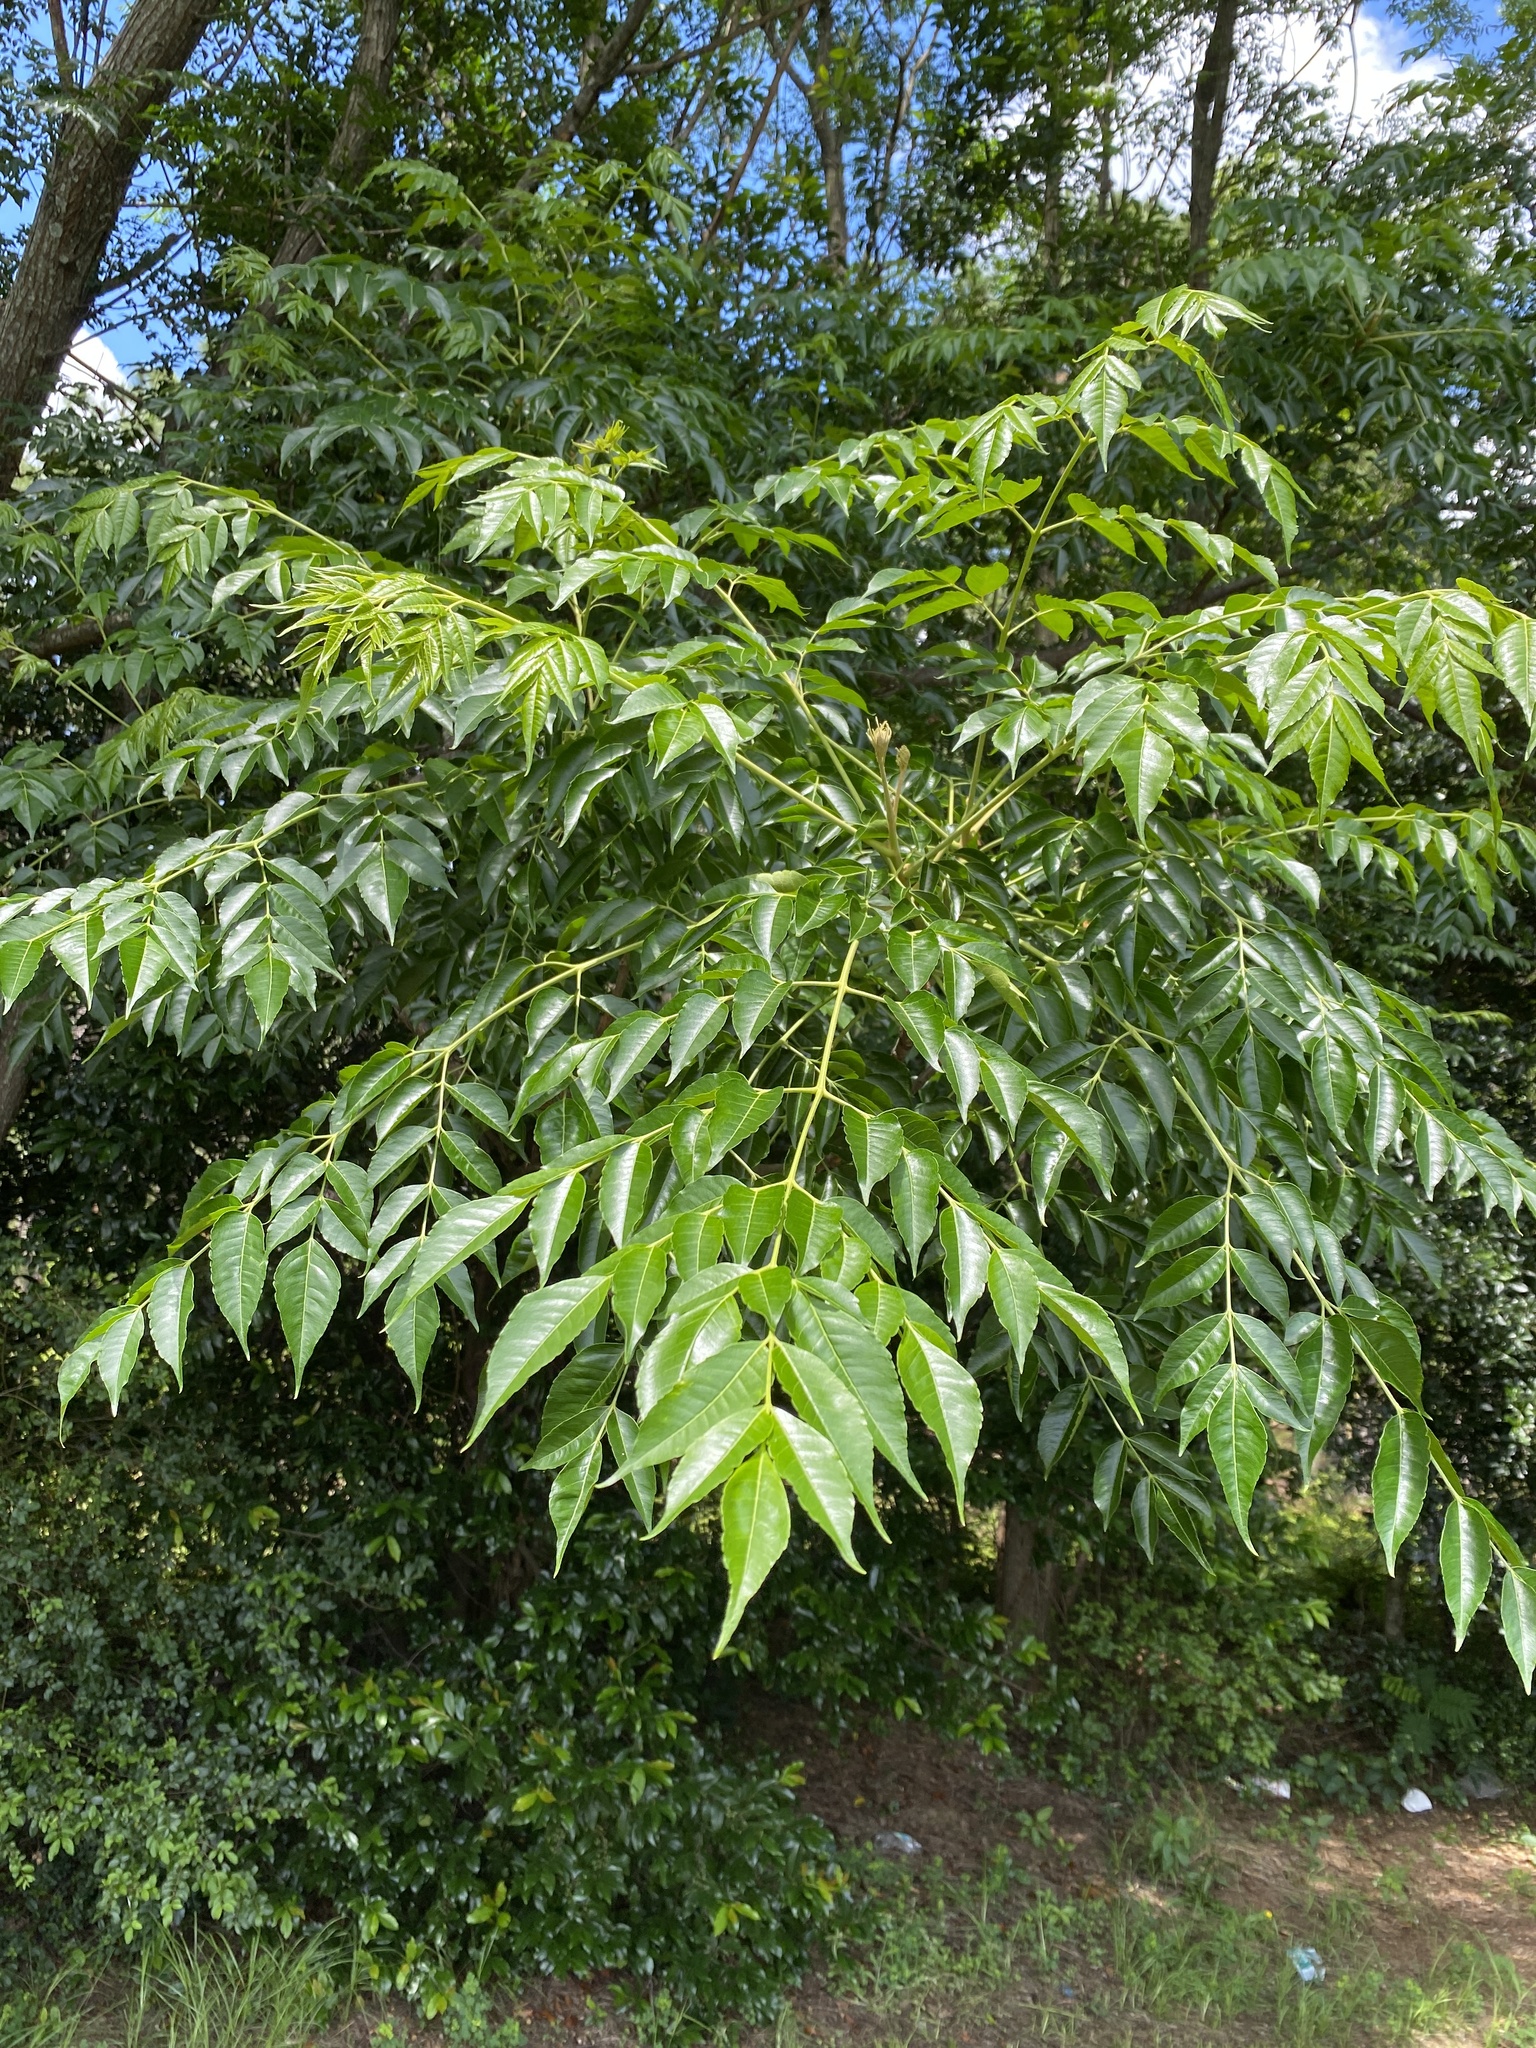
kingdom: Plantae
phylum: Tracheophyta
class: Magnoliopsida
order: Sapindales
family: Meliaceae
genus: Melia
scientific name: Melia azedarach
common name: Chinaberrytree
